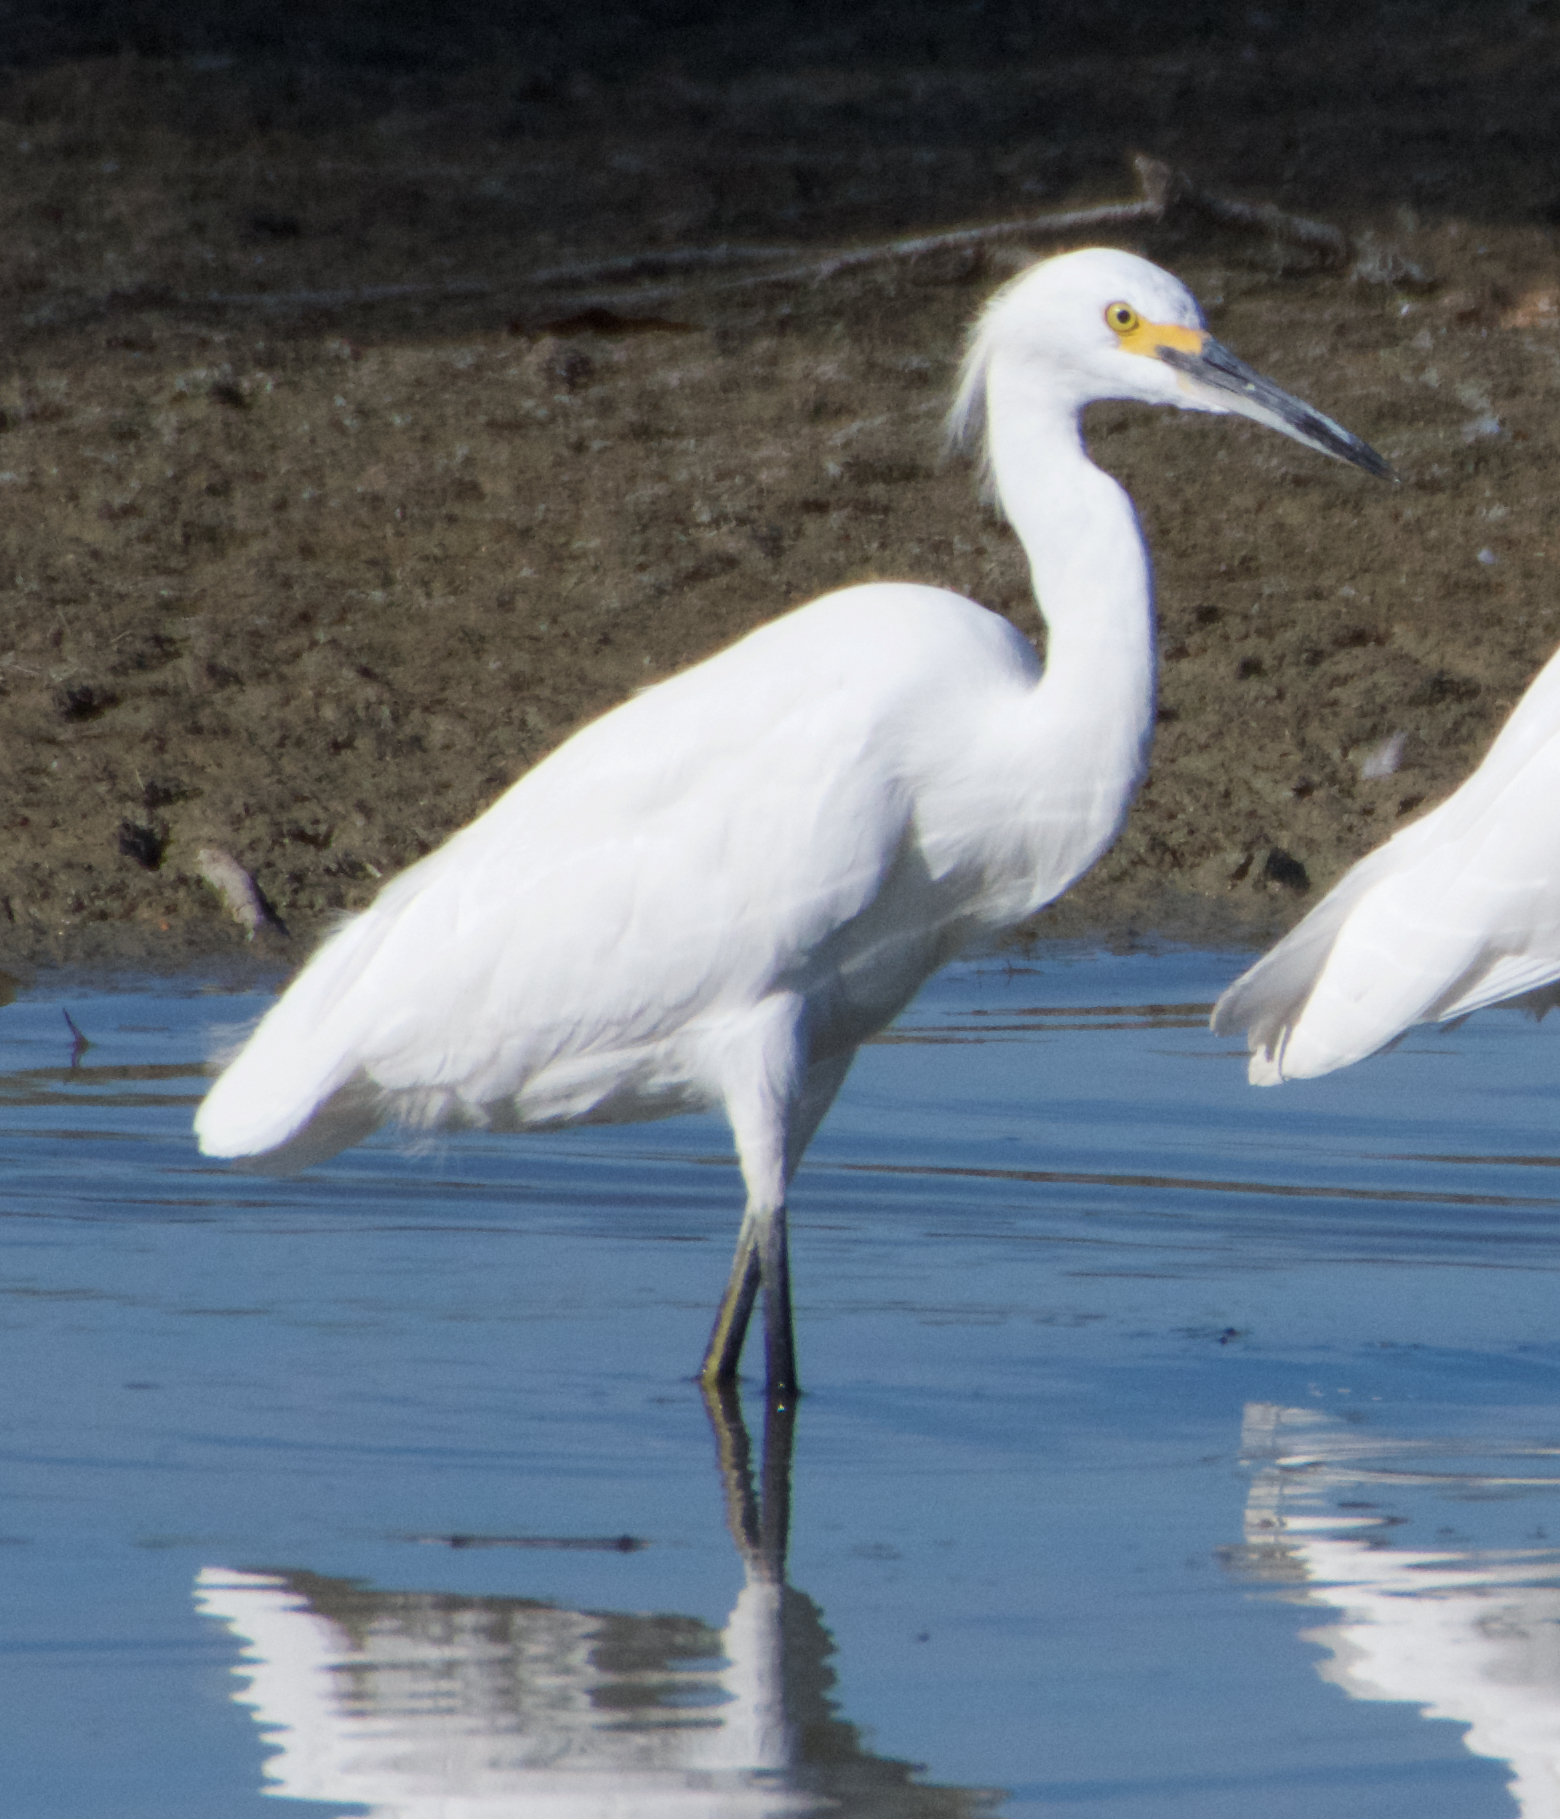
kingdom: Animalia
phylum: Chordata
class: Aves
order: Pelecaniformes
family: Ardeidae
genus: Egretta
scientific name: Egretta thula
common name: Snowy egret
